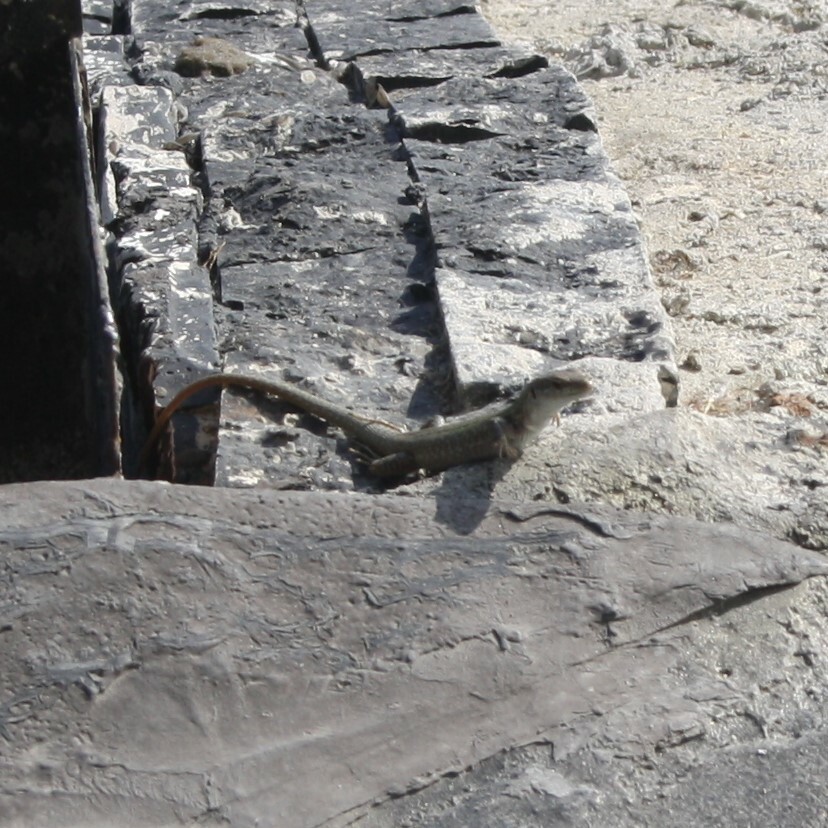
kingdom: Animalia
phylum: Chordata
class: Squamata
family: Lacertidae
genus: Podarcis
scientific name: Podarcis siculus
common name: Italian wall lizard
